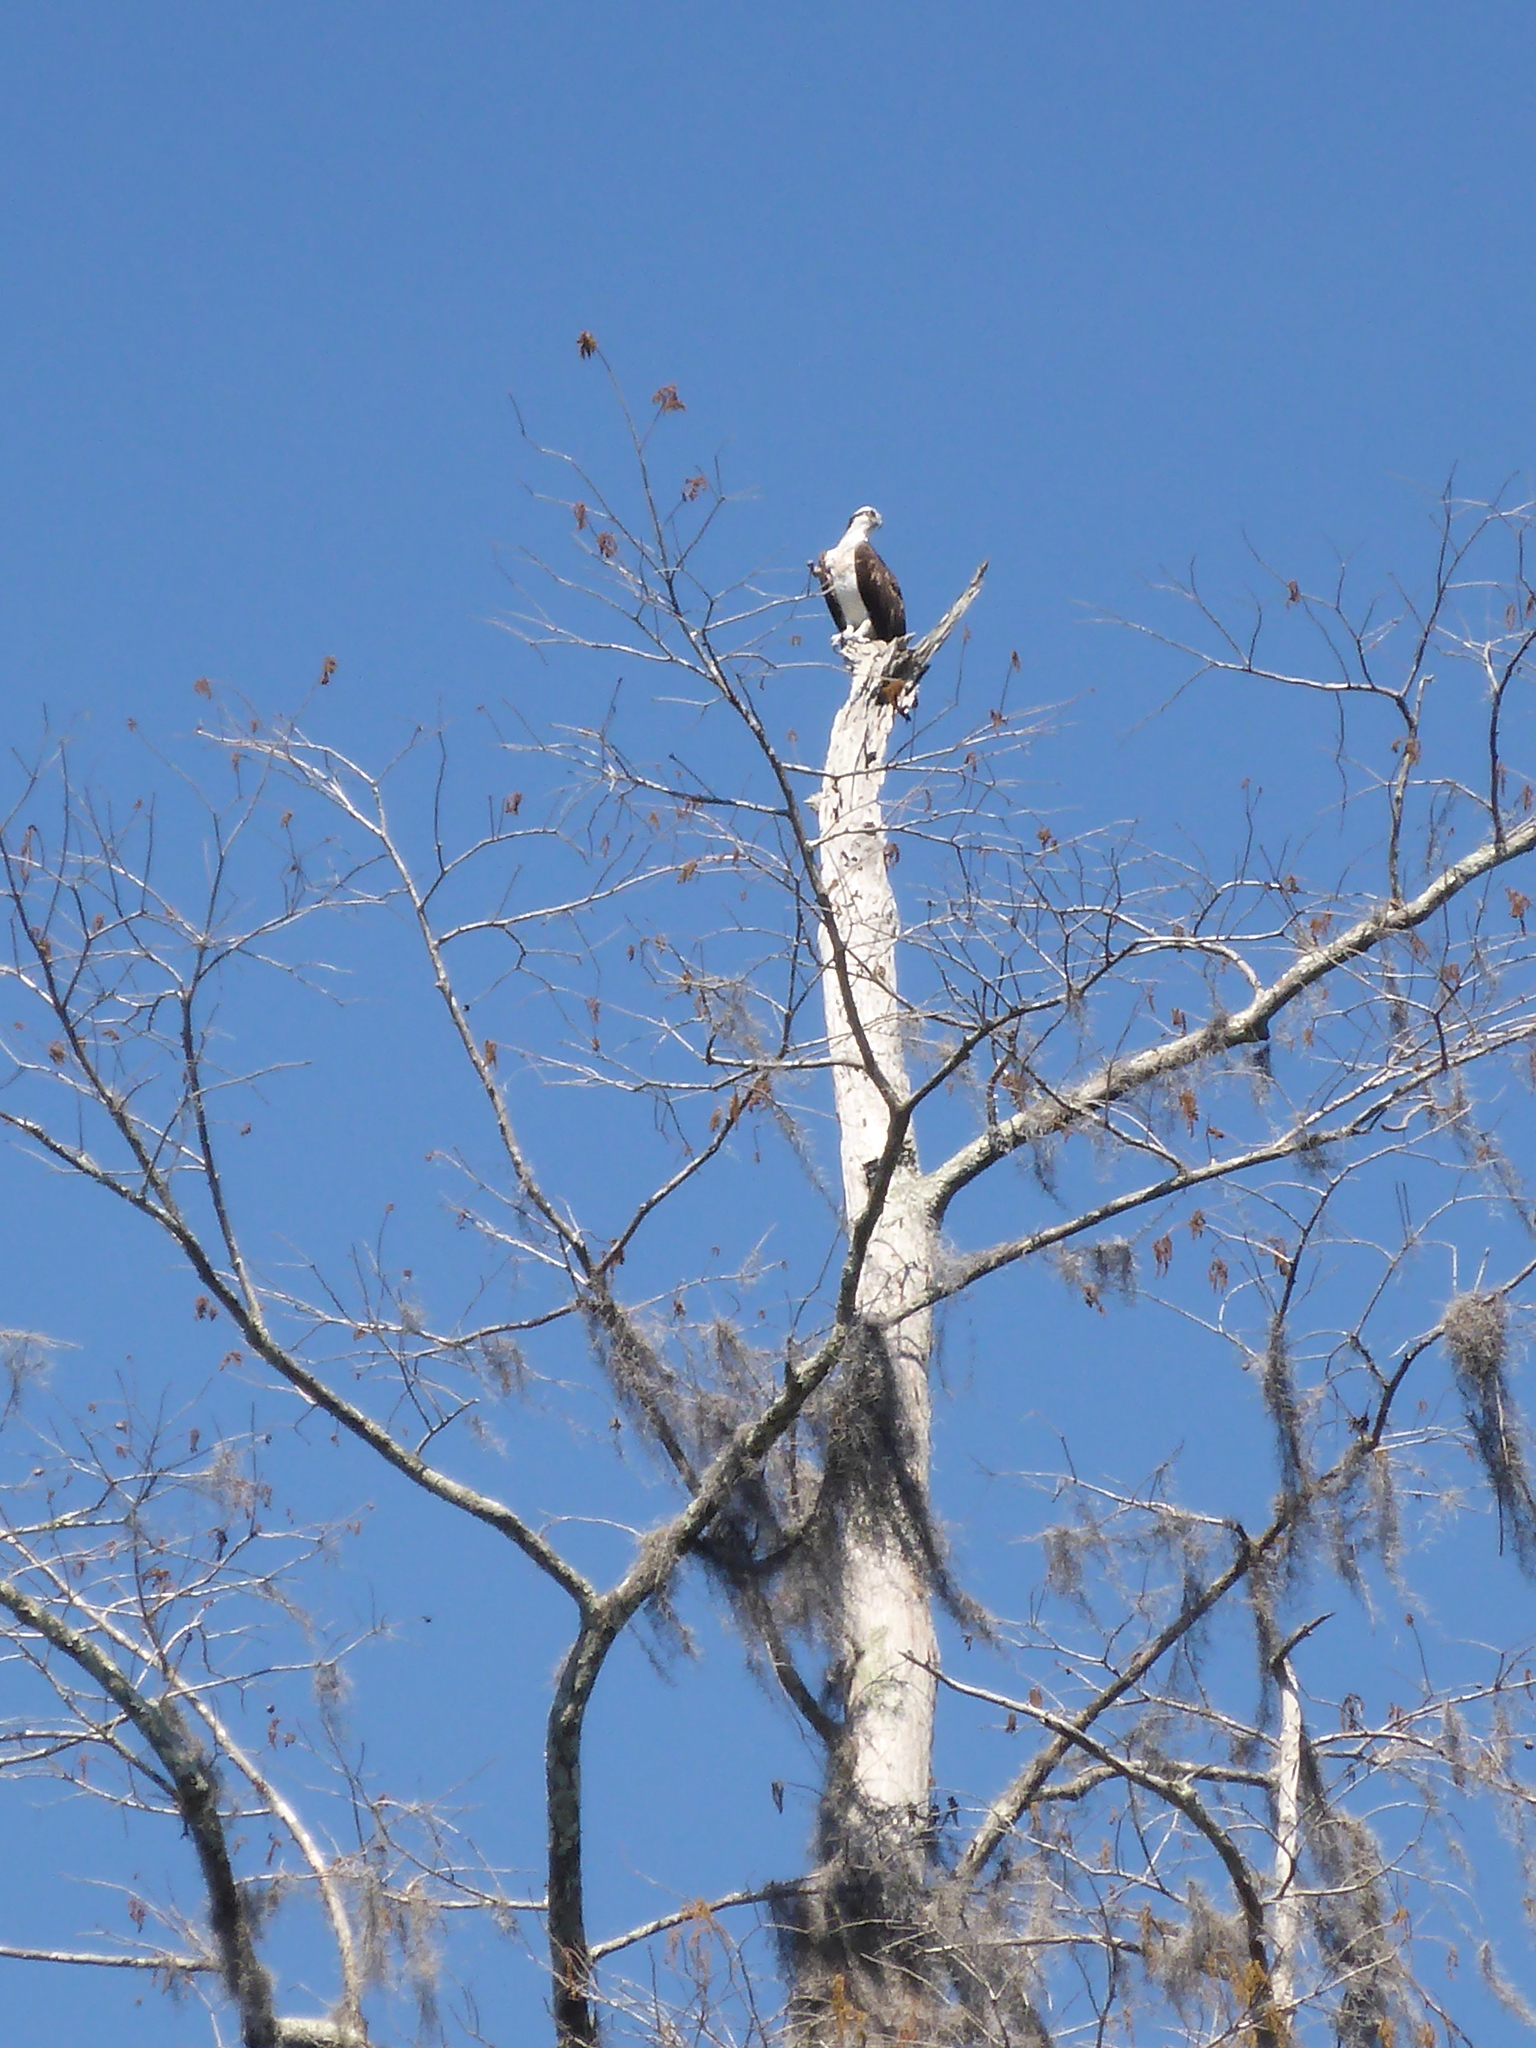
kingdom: Animalia
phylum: Chordata
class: Aves
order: Accipitriformes
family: Pandionidae
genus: Pandion
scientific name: Pandion haliaetus
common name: Osprey
